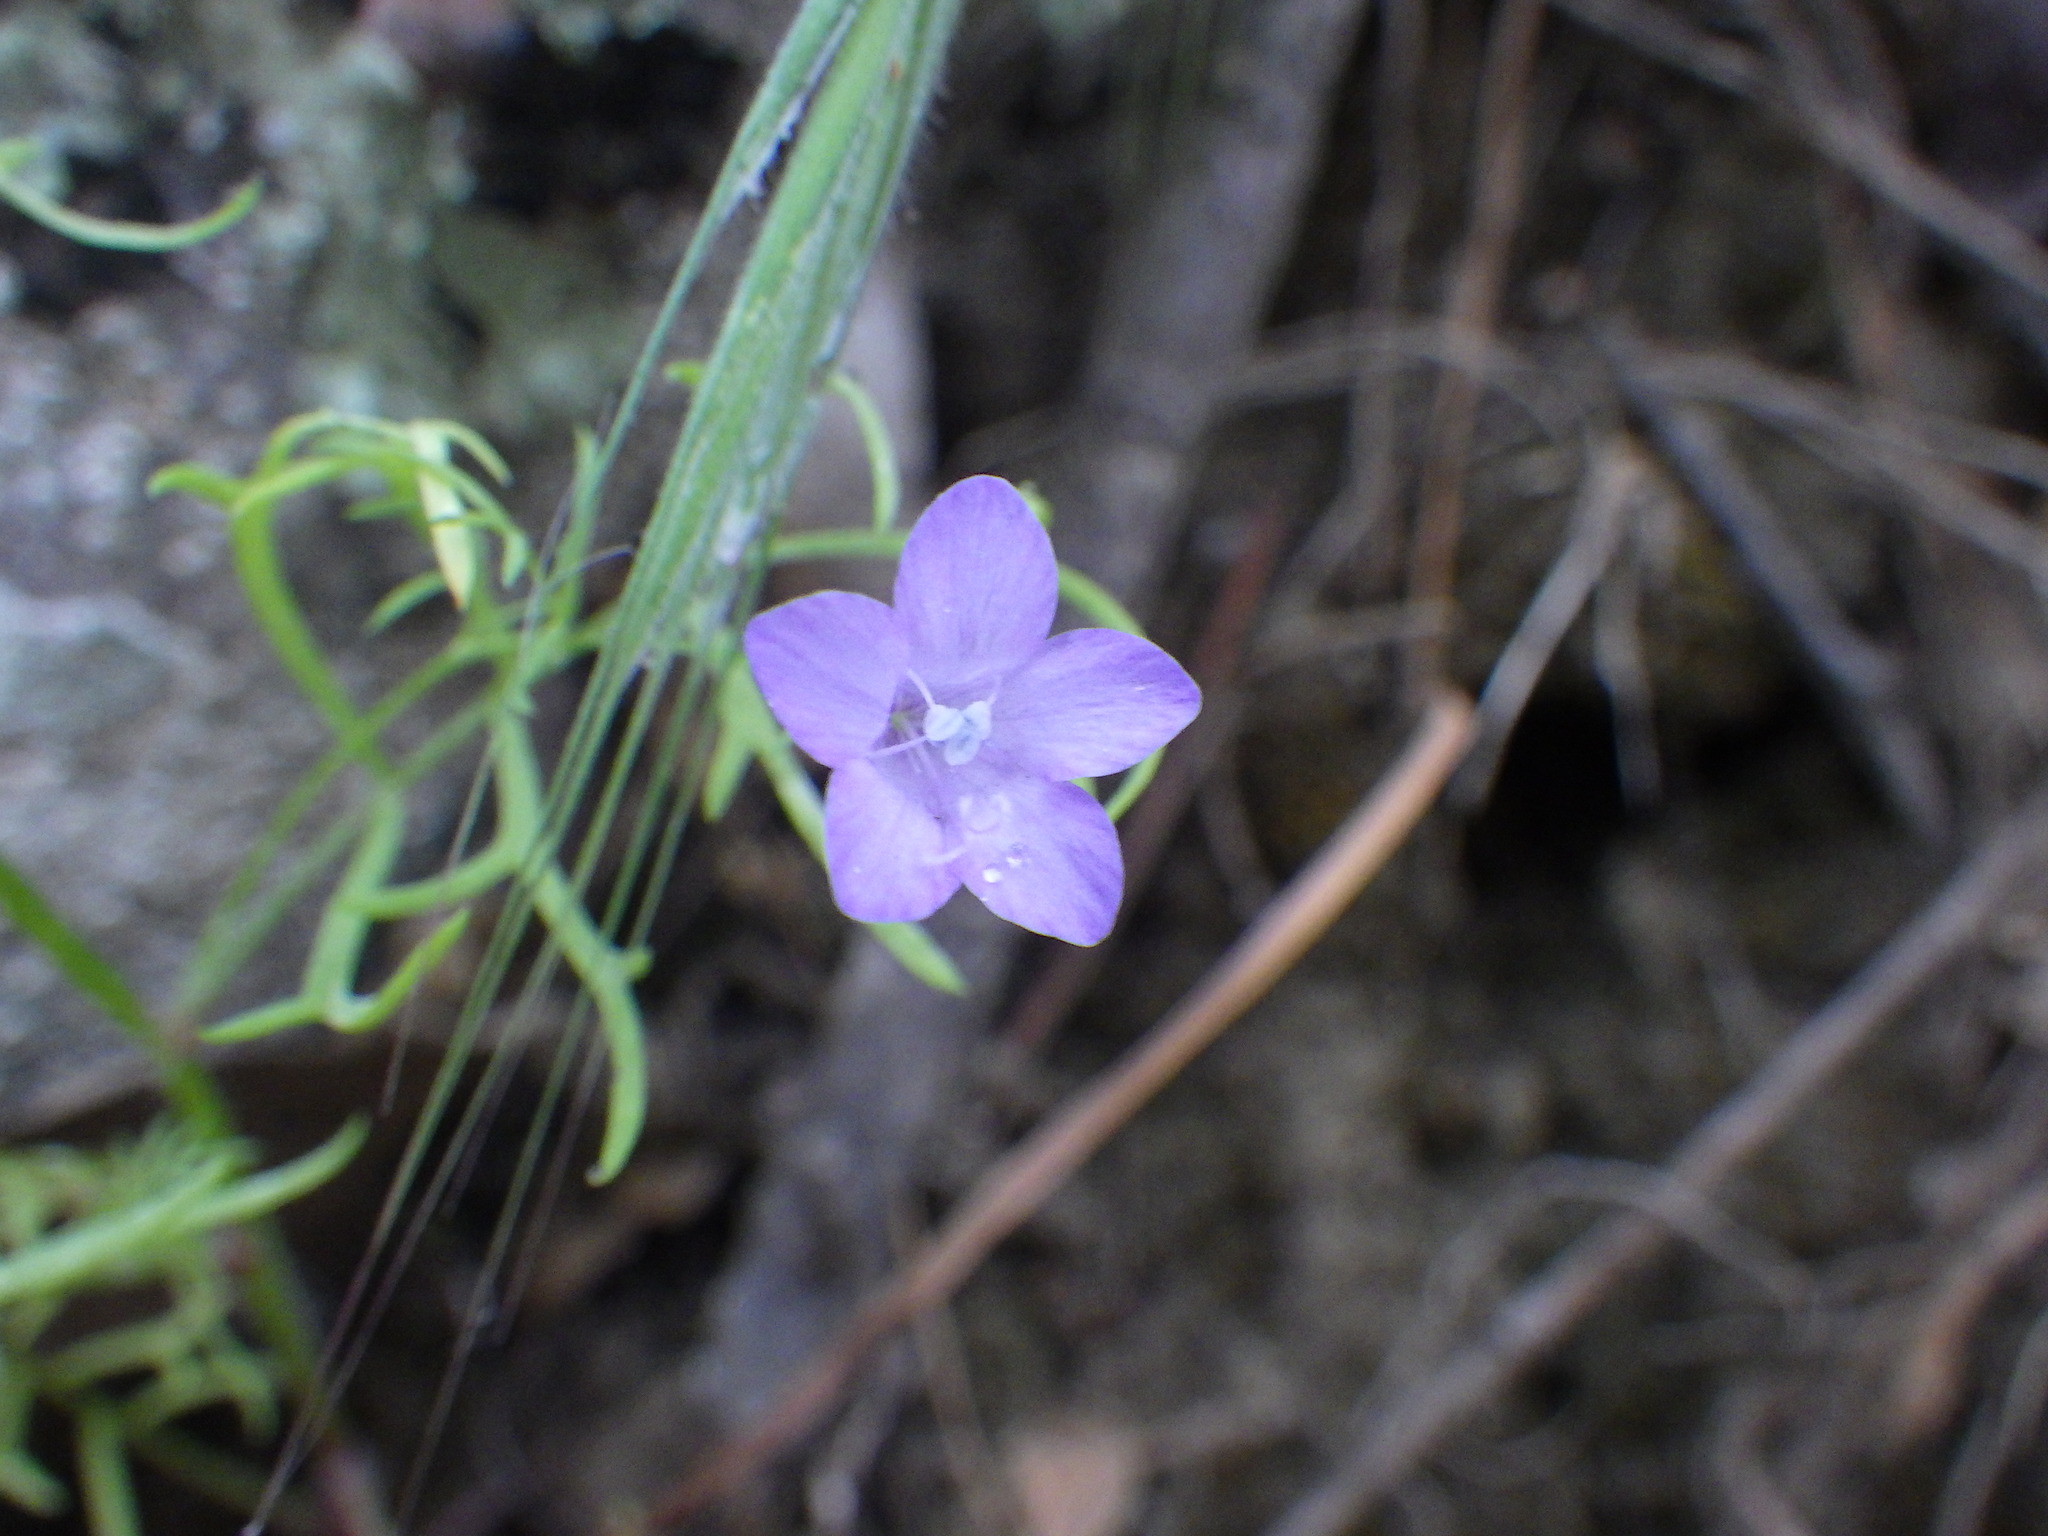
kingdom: Plantae
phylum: Tracheophyta
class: Magnoliopsida
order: Ericales
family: Polemoniaceae
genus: Gilia
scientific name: Gilia achilleifolia
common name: California gily-flower
